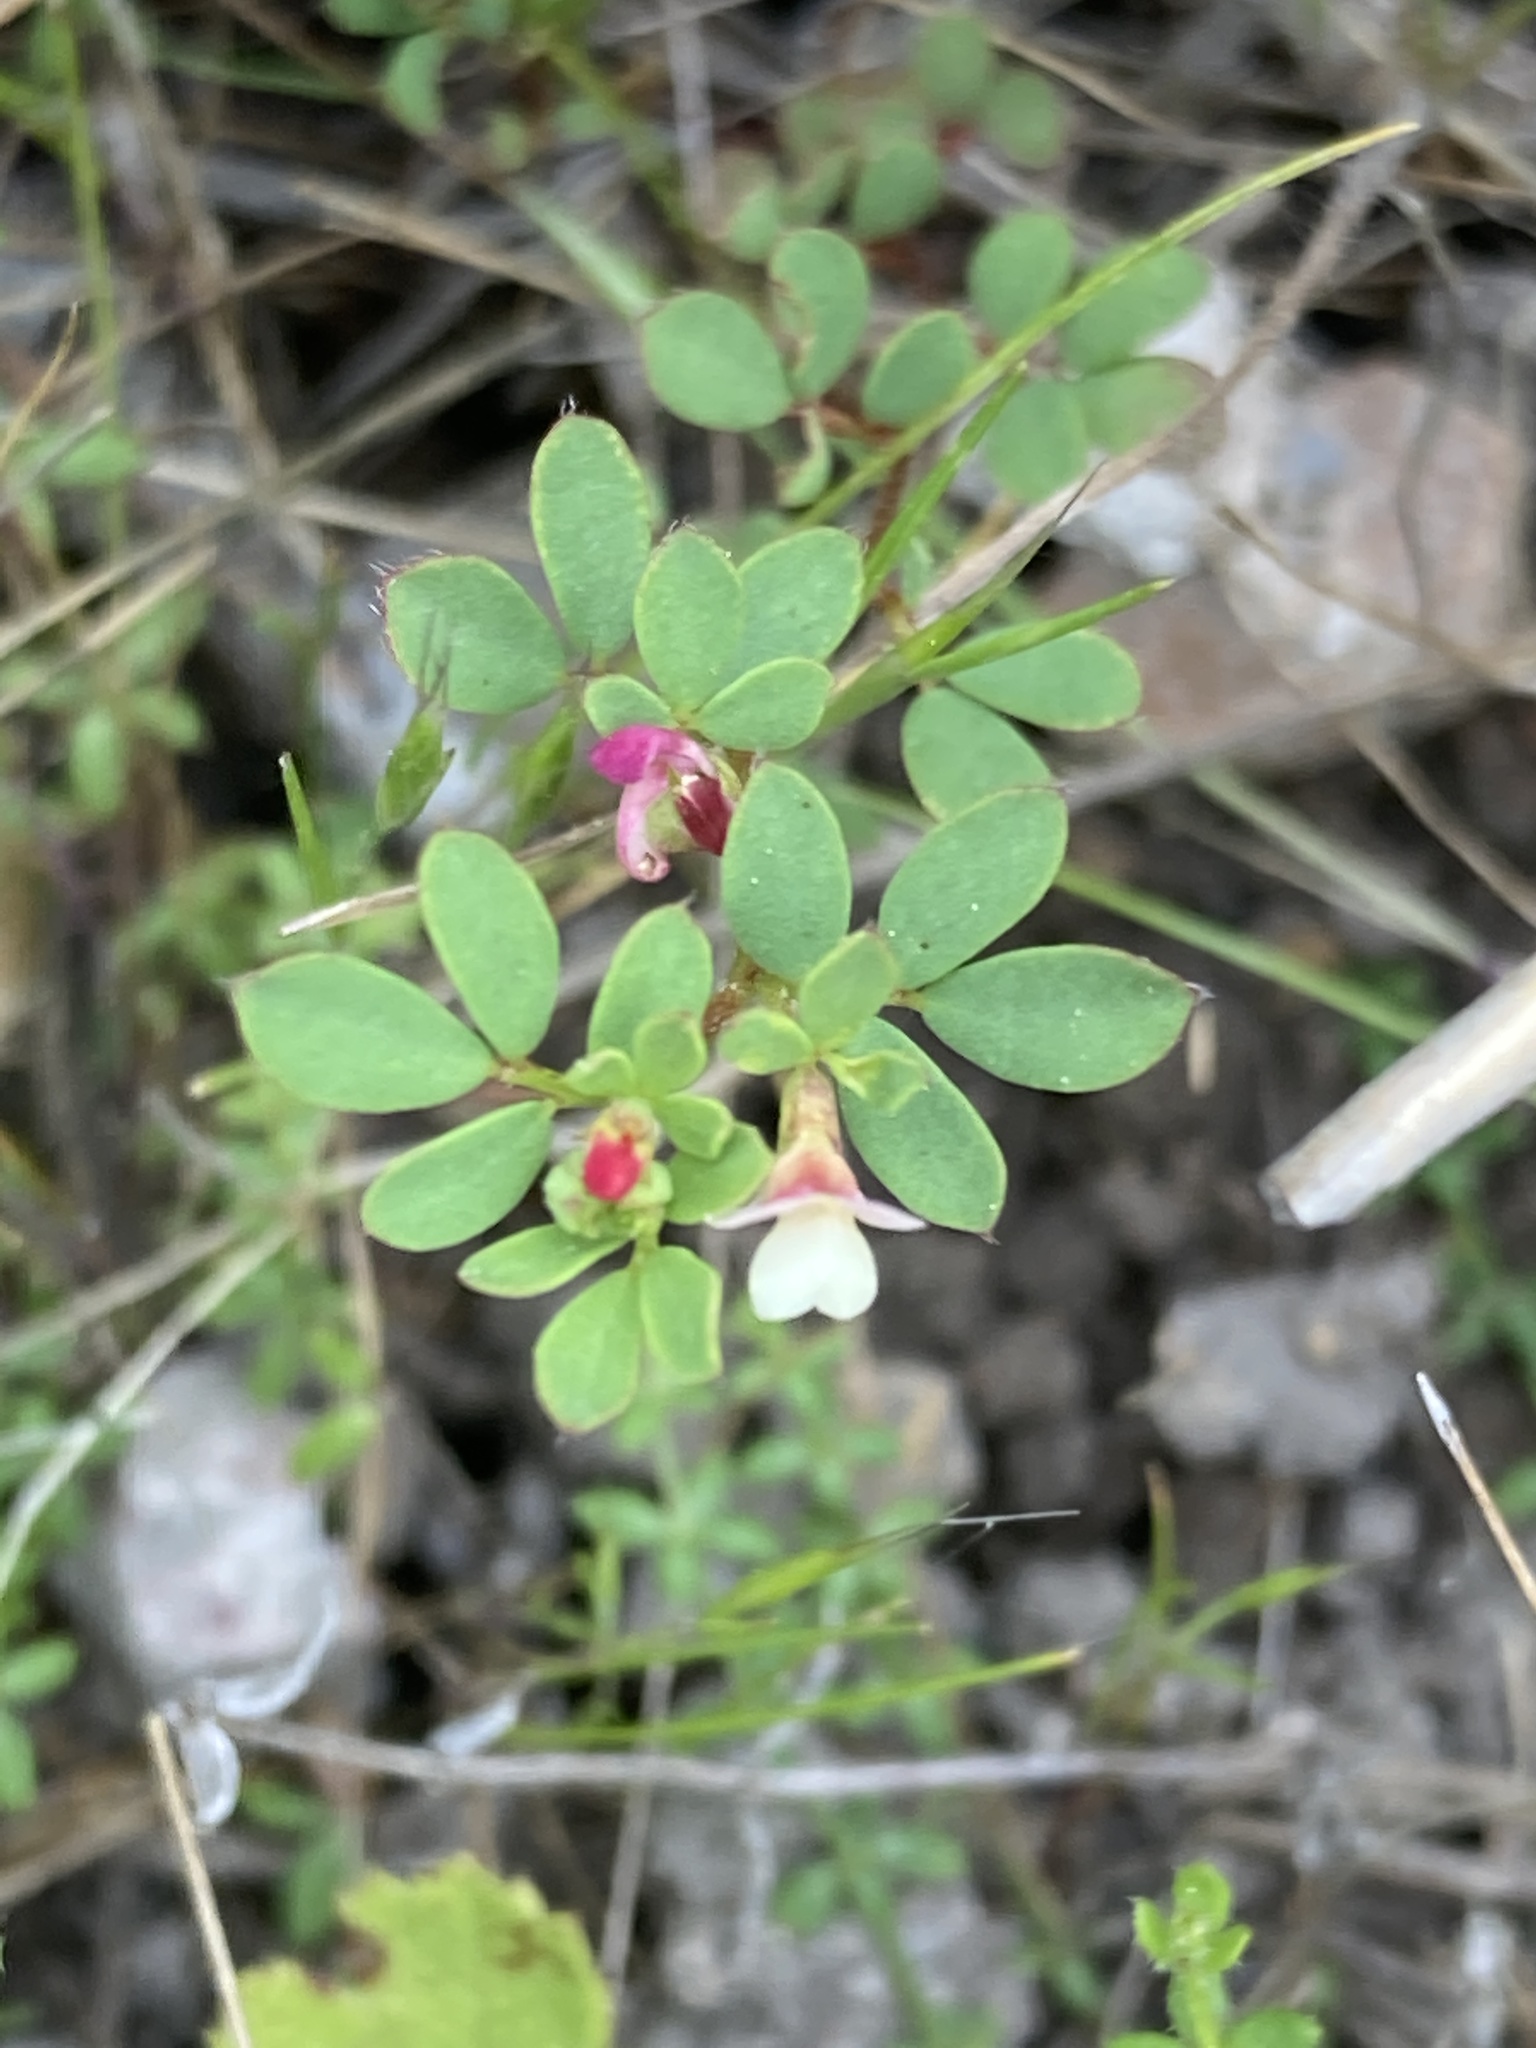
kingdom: Plantae
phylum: Tracheophyta
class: Magnoliopsida
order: Fabales
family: Fabaceae
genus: Acmispon
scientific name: Acmispon parviflorus
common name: Desert deer-vetch
